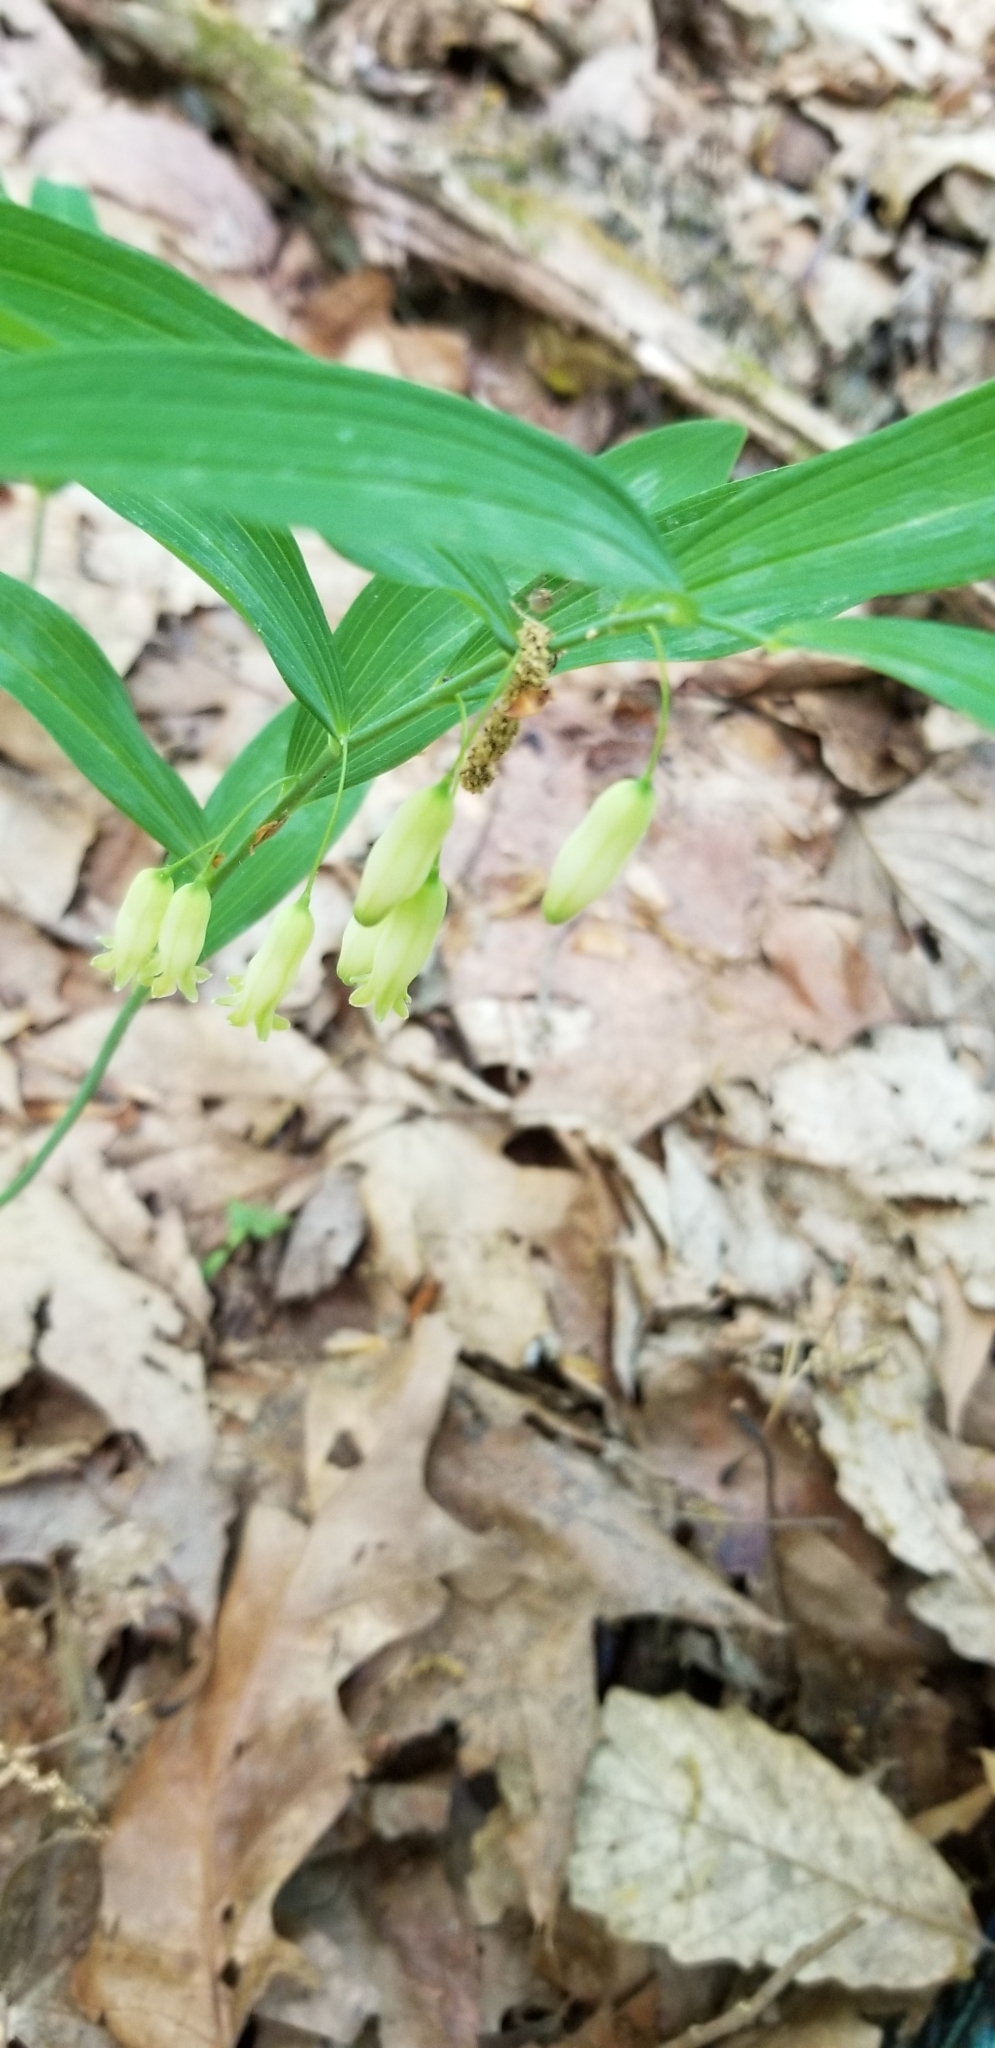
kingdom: Plantae
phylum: Tracheophyta
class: Liliopsida
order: Asparagales
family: Asparagaceae
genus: Polygonatum
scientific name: Polygonatum biflorum
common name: American solomon's-seal
